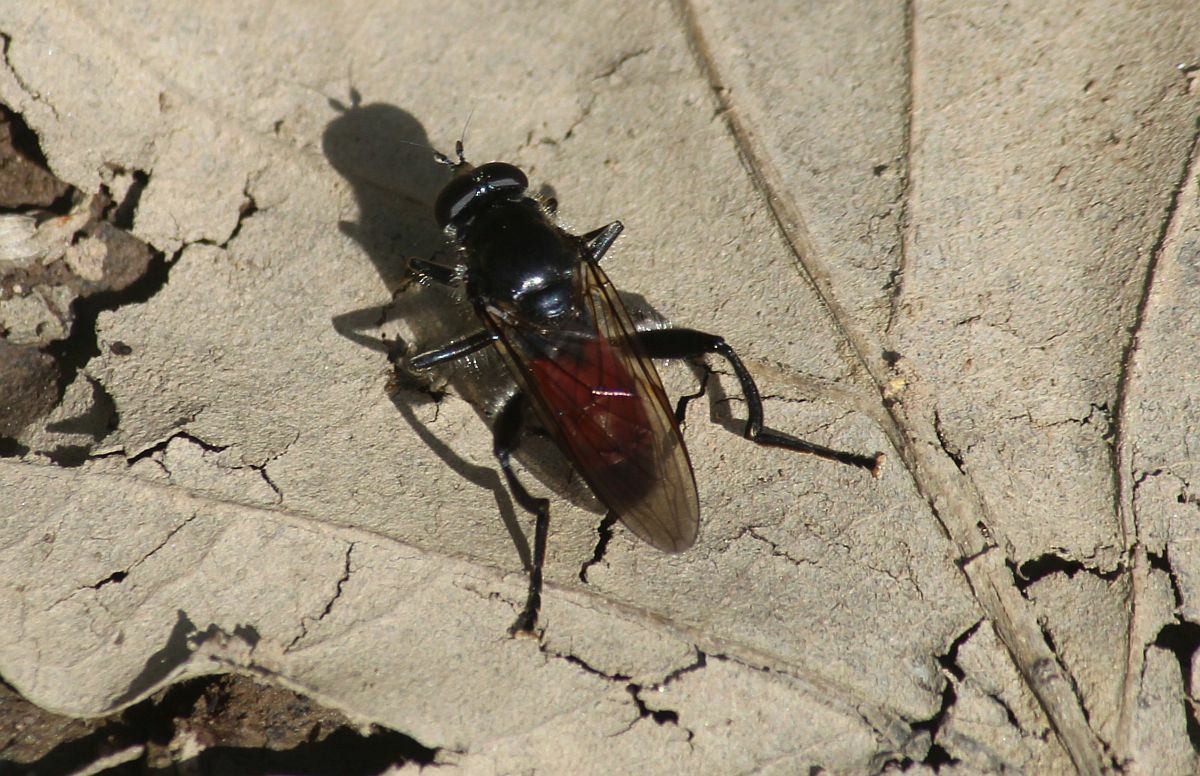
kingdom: Animalia
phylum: Arthropoda
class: Insecta
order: Diptera
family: Syrphidae
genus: Brachypalpoides
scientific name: Brachypalpoides lenta
